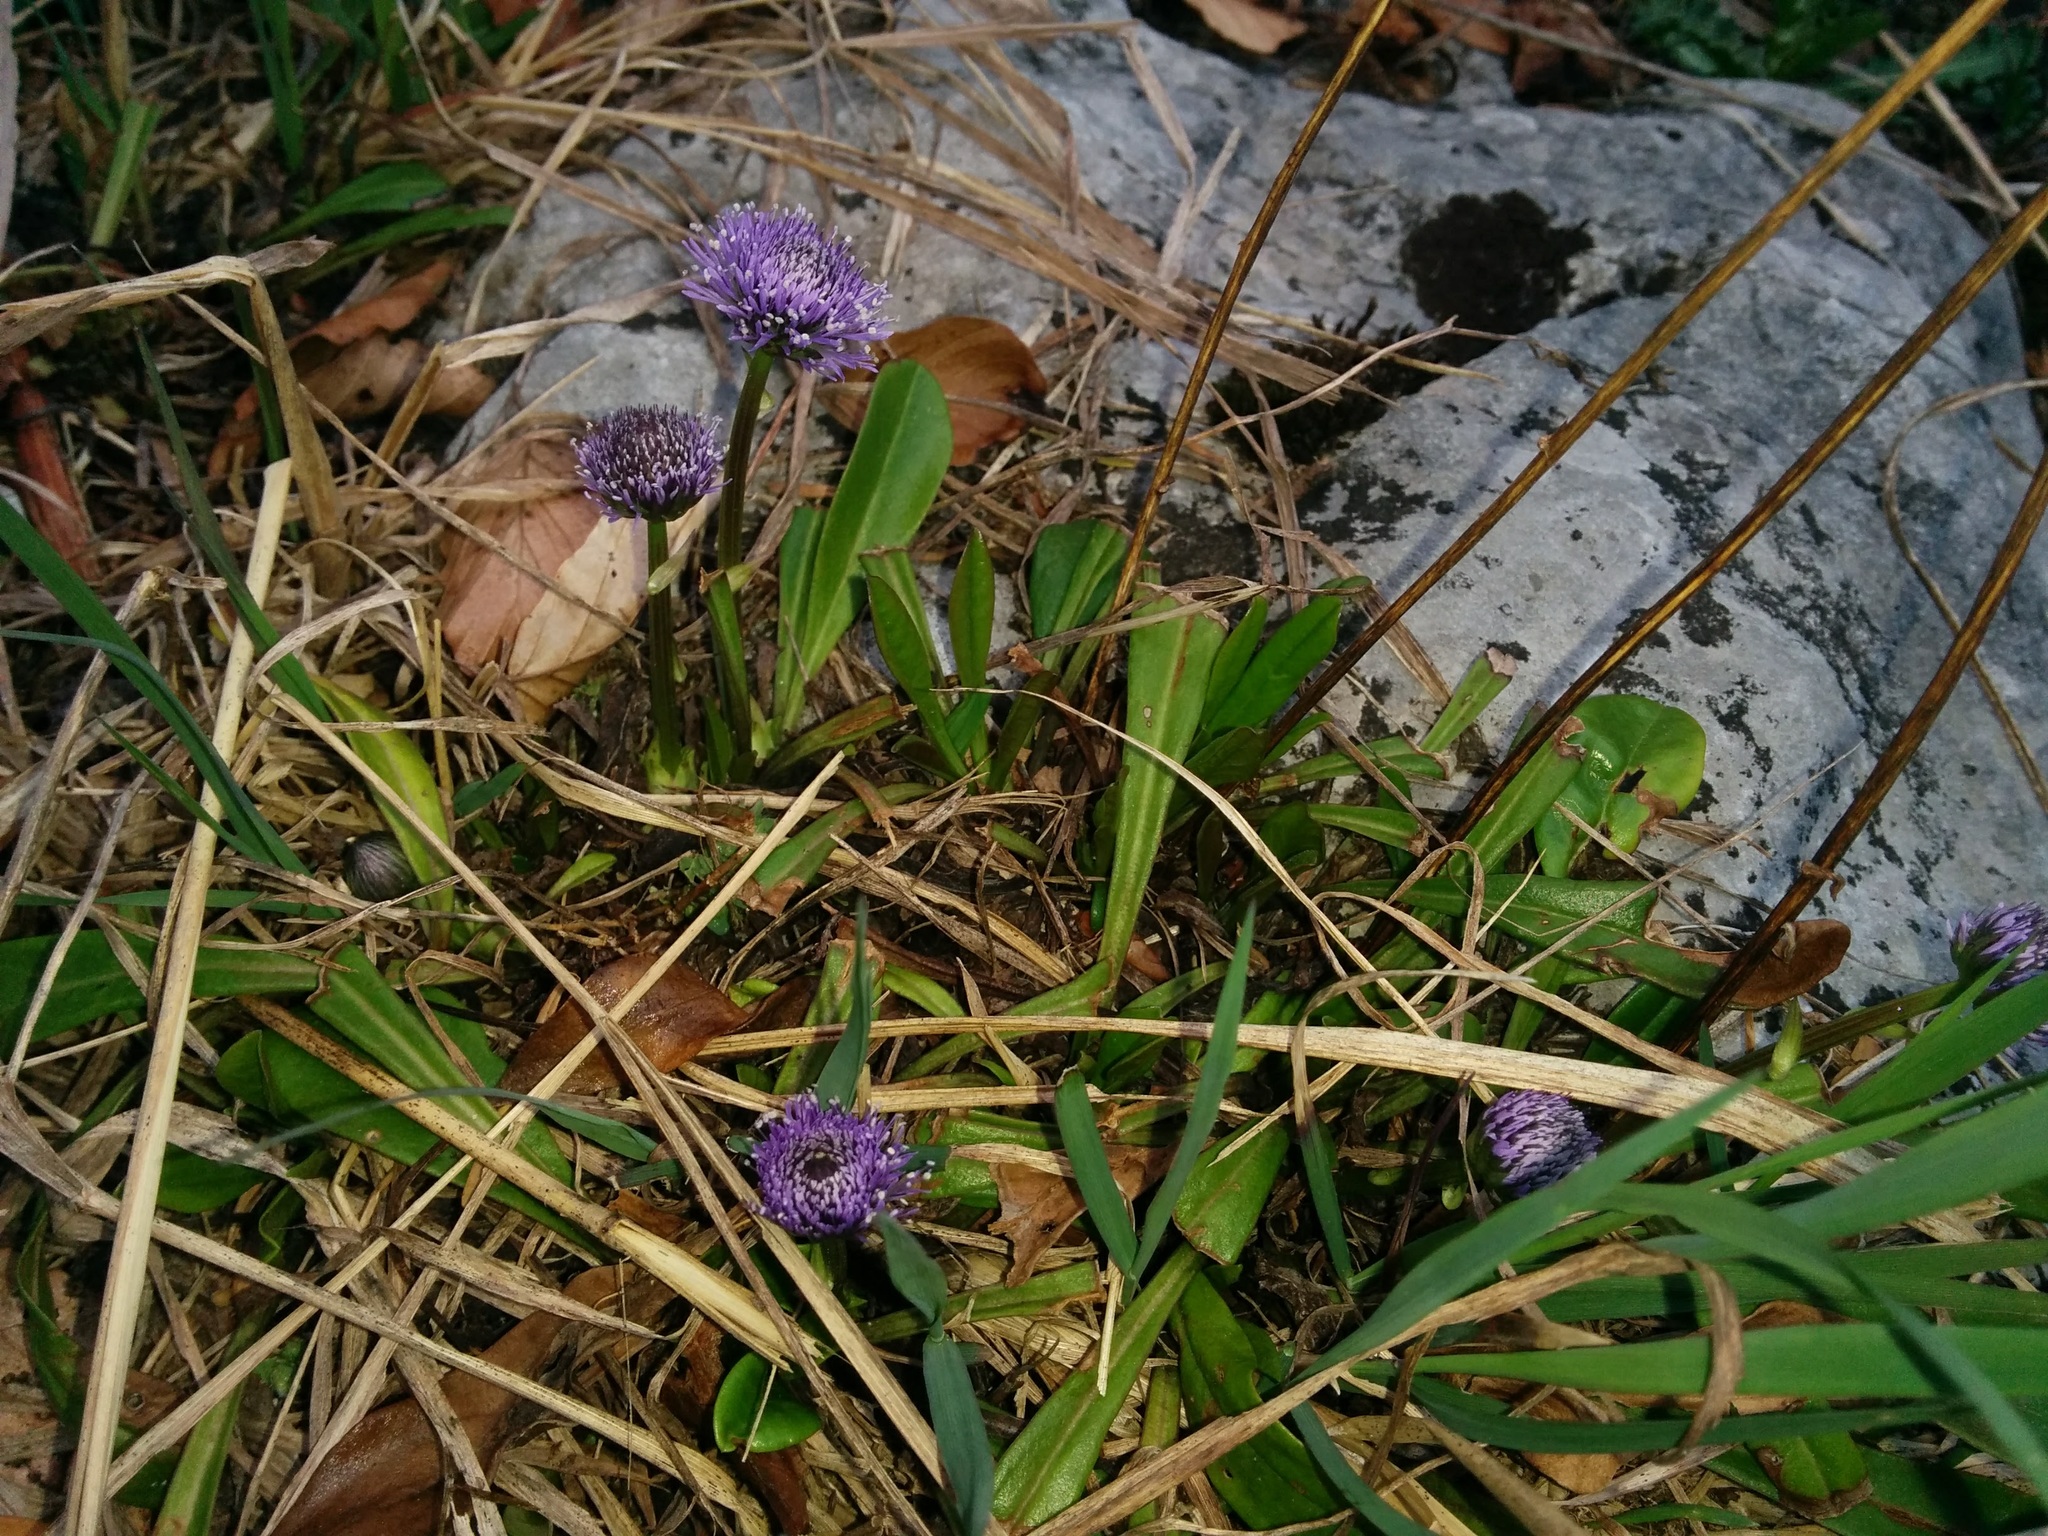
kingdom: Plantae
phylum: Tracheophyta
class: Magnoliopsida
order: Lamiales
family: Plantaginaceae
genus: Globularia
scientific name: Globularia nudicaulis
